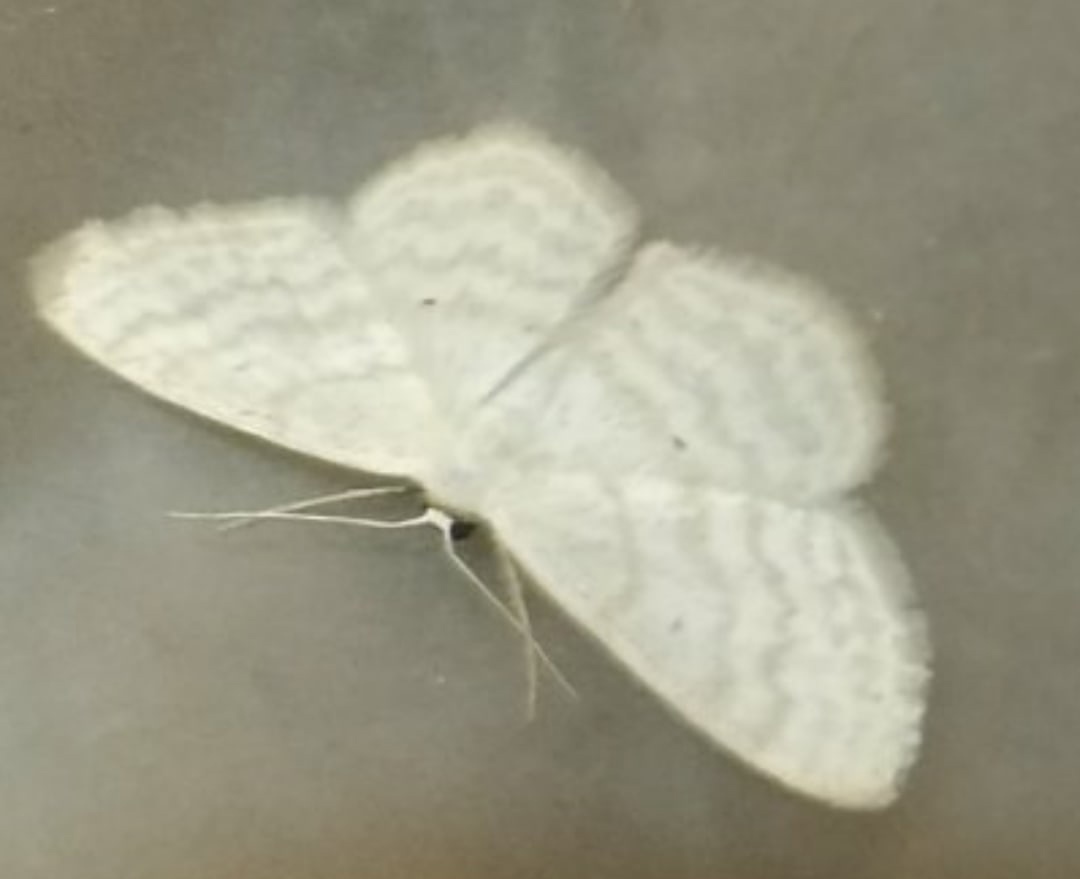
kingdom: Animalia
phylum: Arthropoda
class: Insecta
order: Lepidoptera
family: Geometridae
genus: Scopula
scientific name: Scopula immutata
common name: Lesser cream wave
